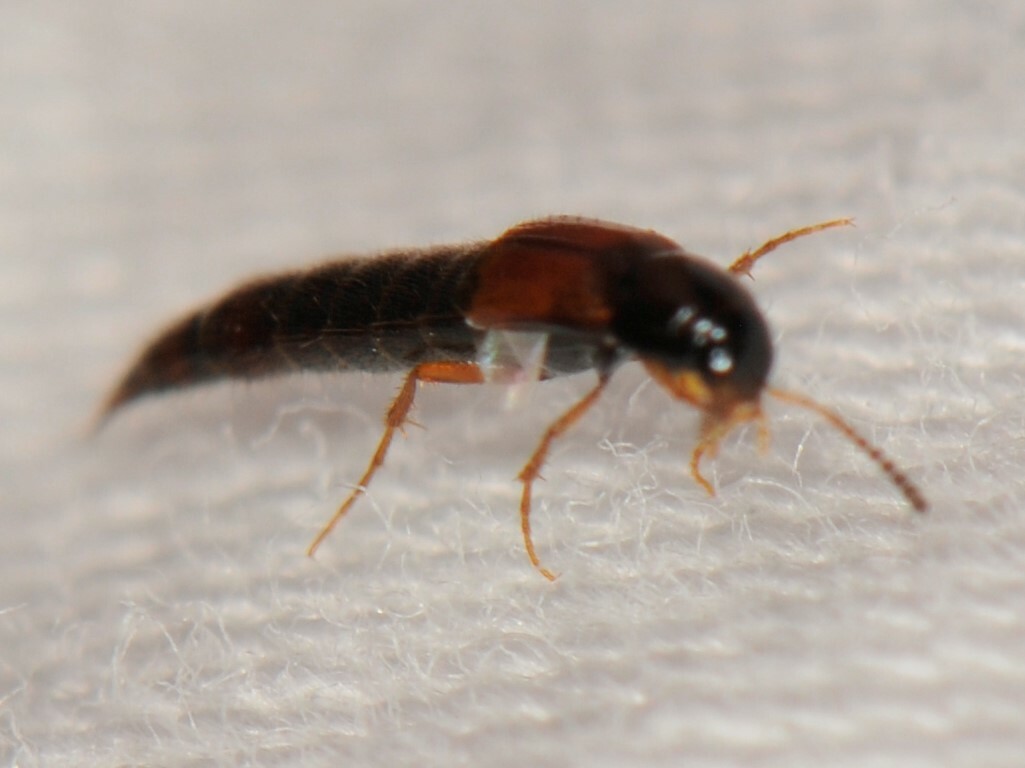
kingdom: Animalia
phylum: Arthropoda
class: Insecta
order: Coleoptera
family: Staphylinidae
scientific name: Staphylinidae
